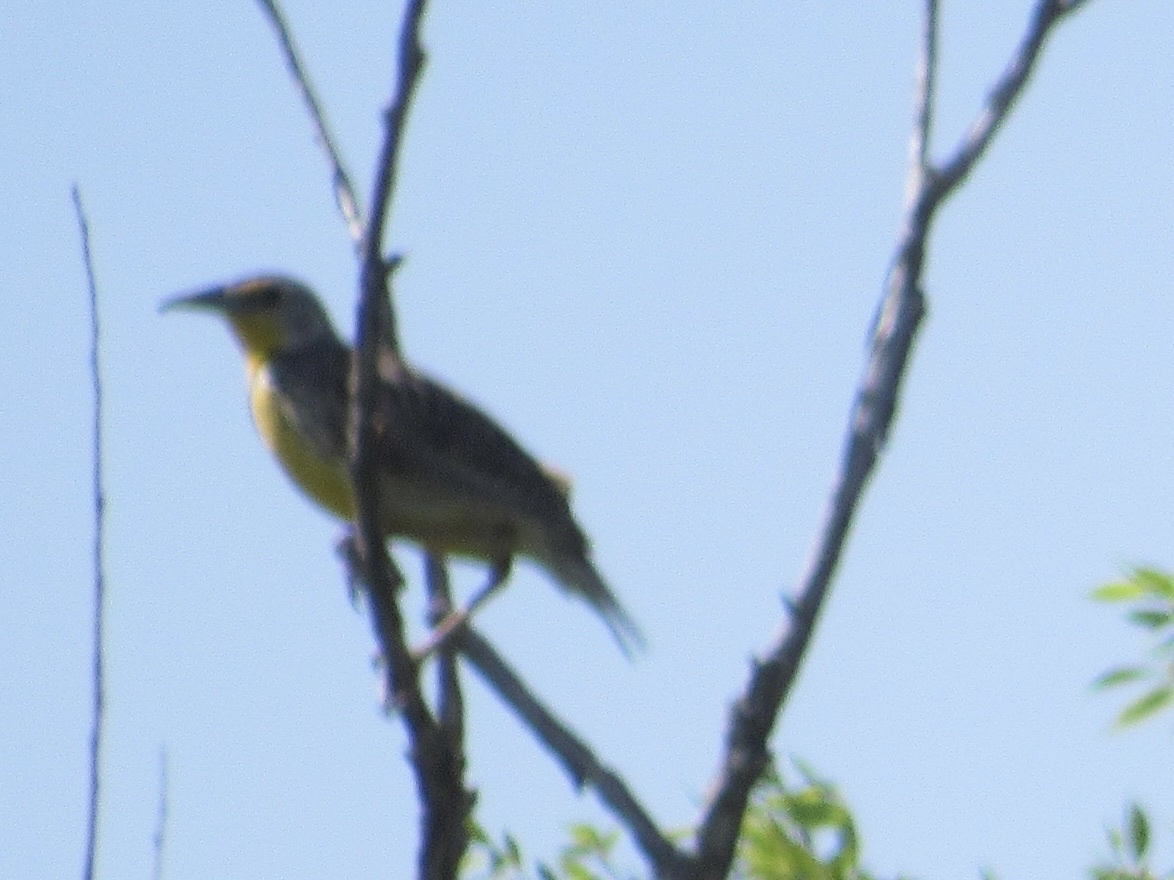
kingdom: Animalia
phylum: Chordata
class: Aves
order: Passeriformes
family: Icteridae
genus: Sturnella
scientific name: Sturnella neglecta
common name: Western meadowlark
